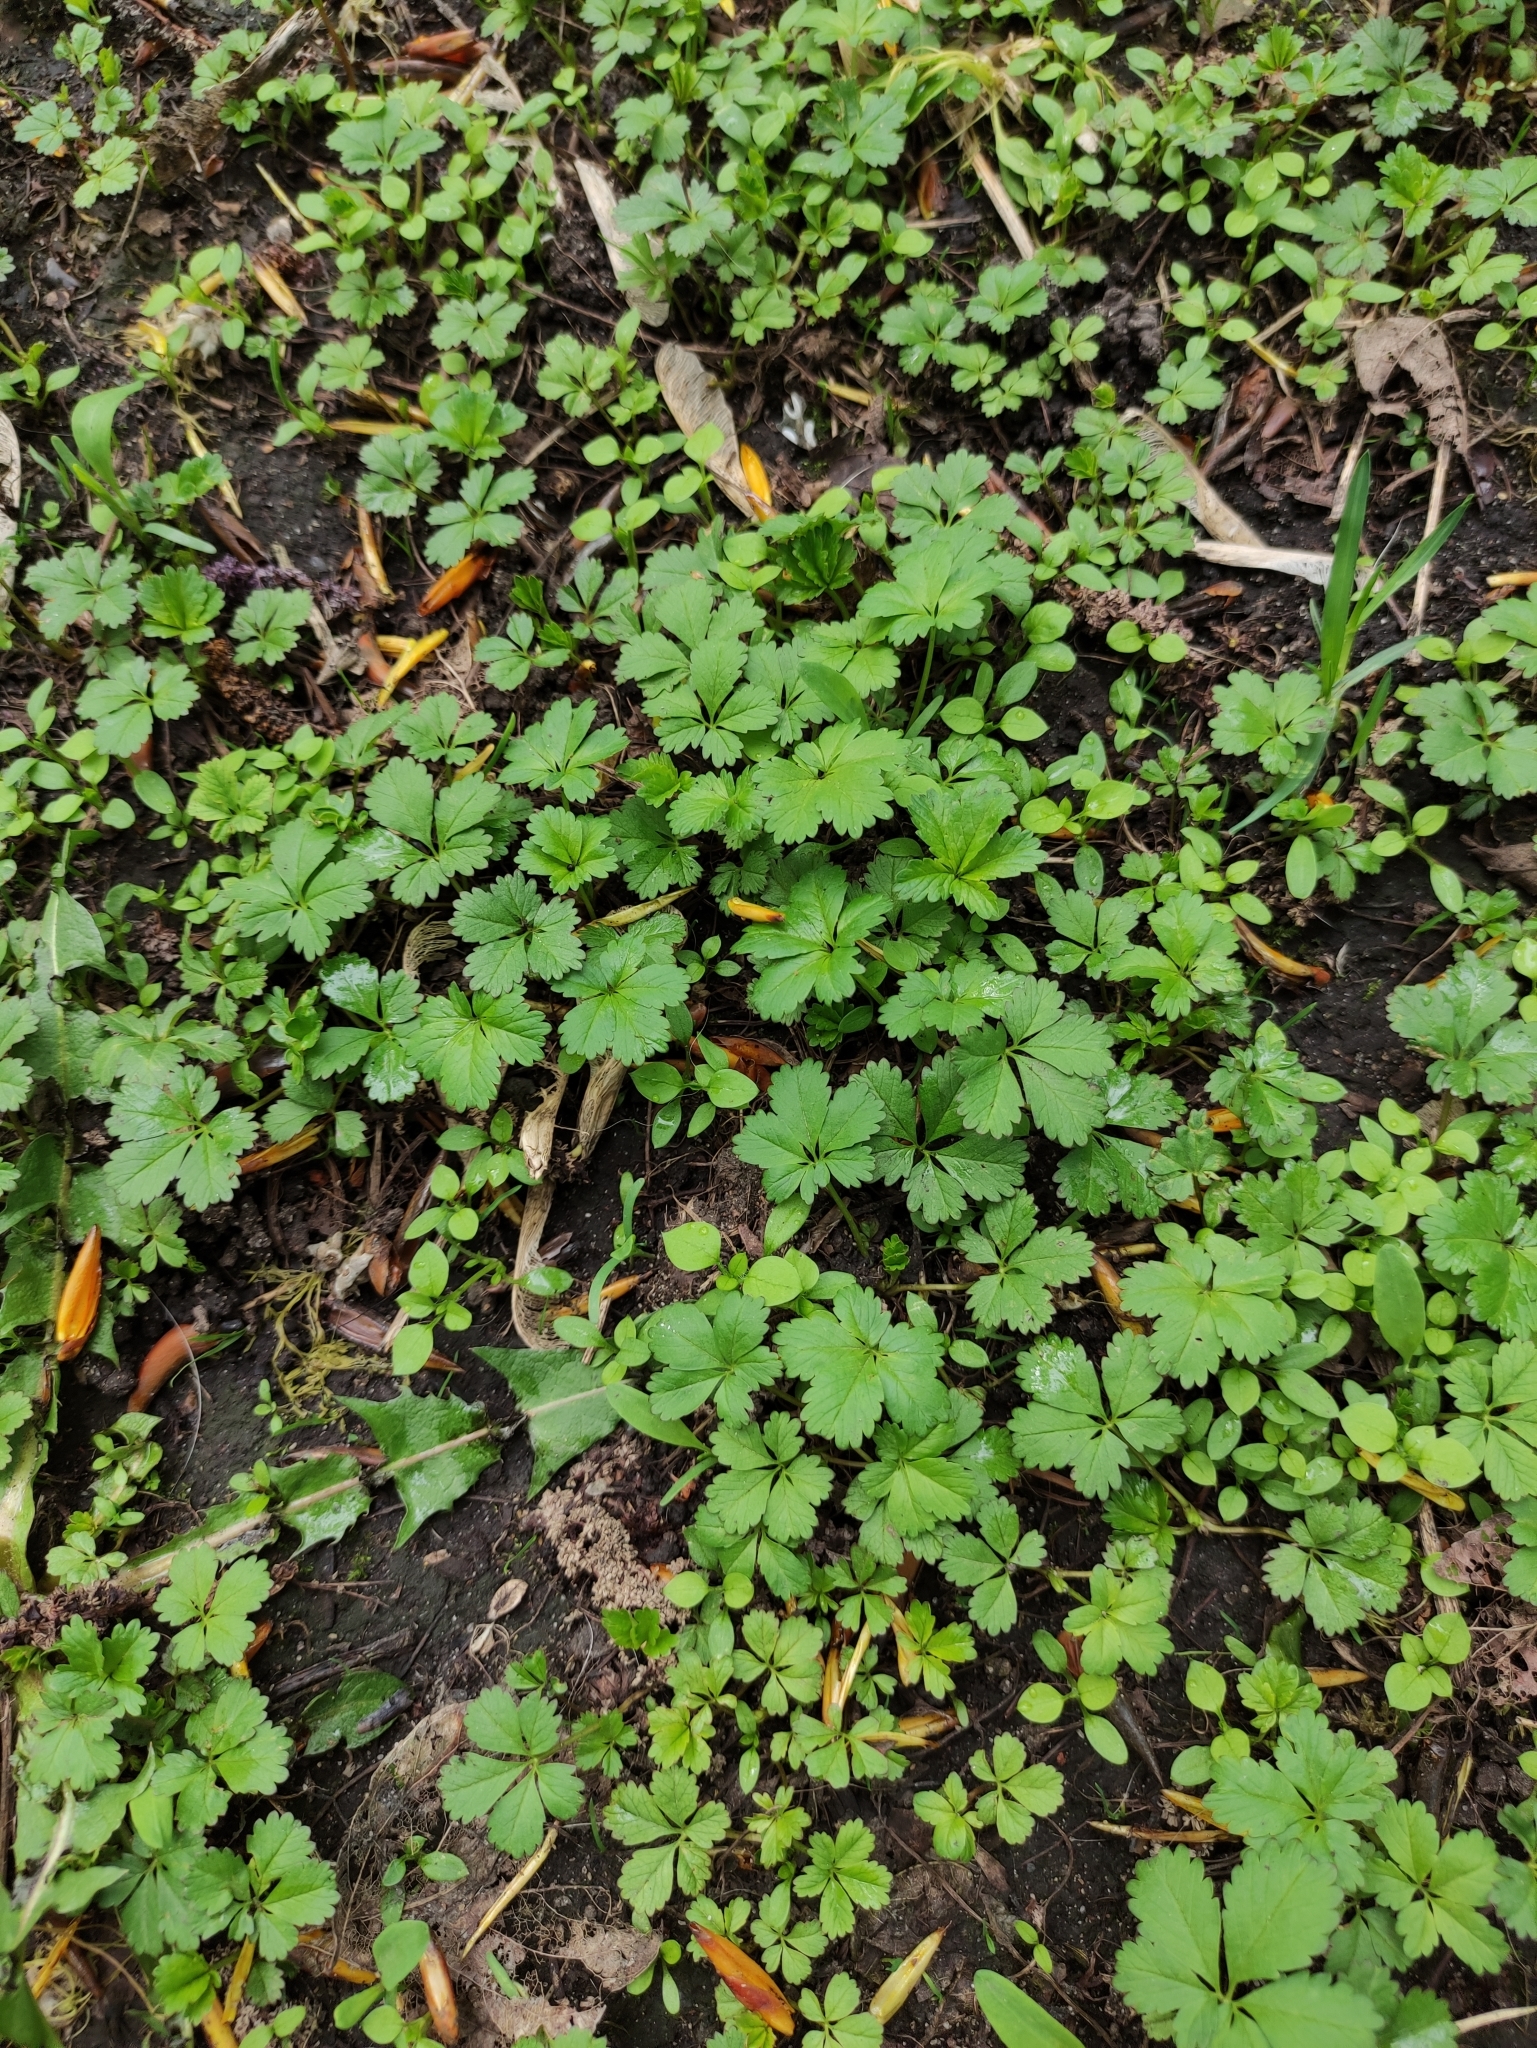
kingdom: Plantae
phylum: Tracheophyta
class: Magnoliopsida
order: Rosales
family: Rosaceae
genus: Potentilla
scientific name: Potentilla reptans
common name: Creeping cinquefoil
